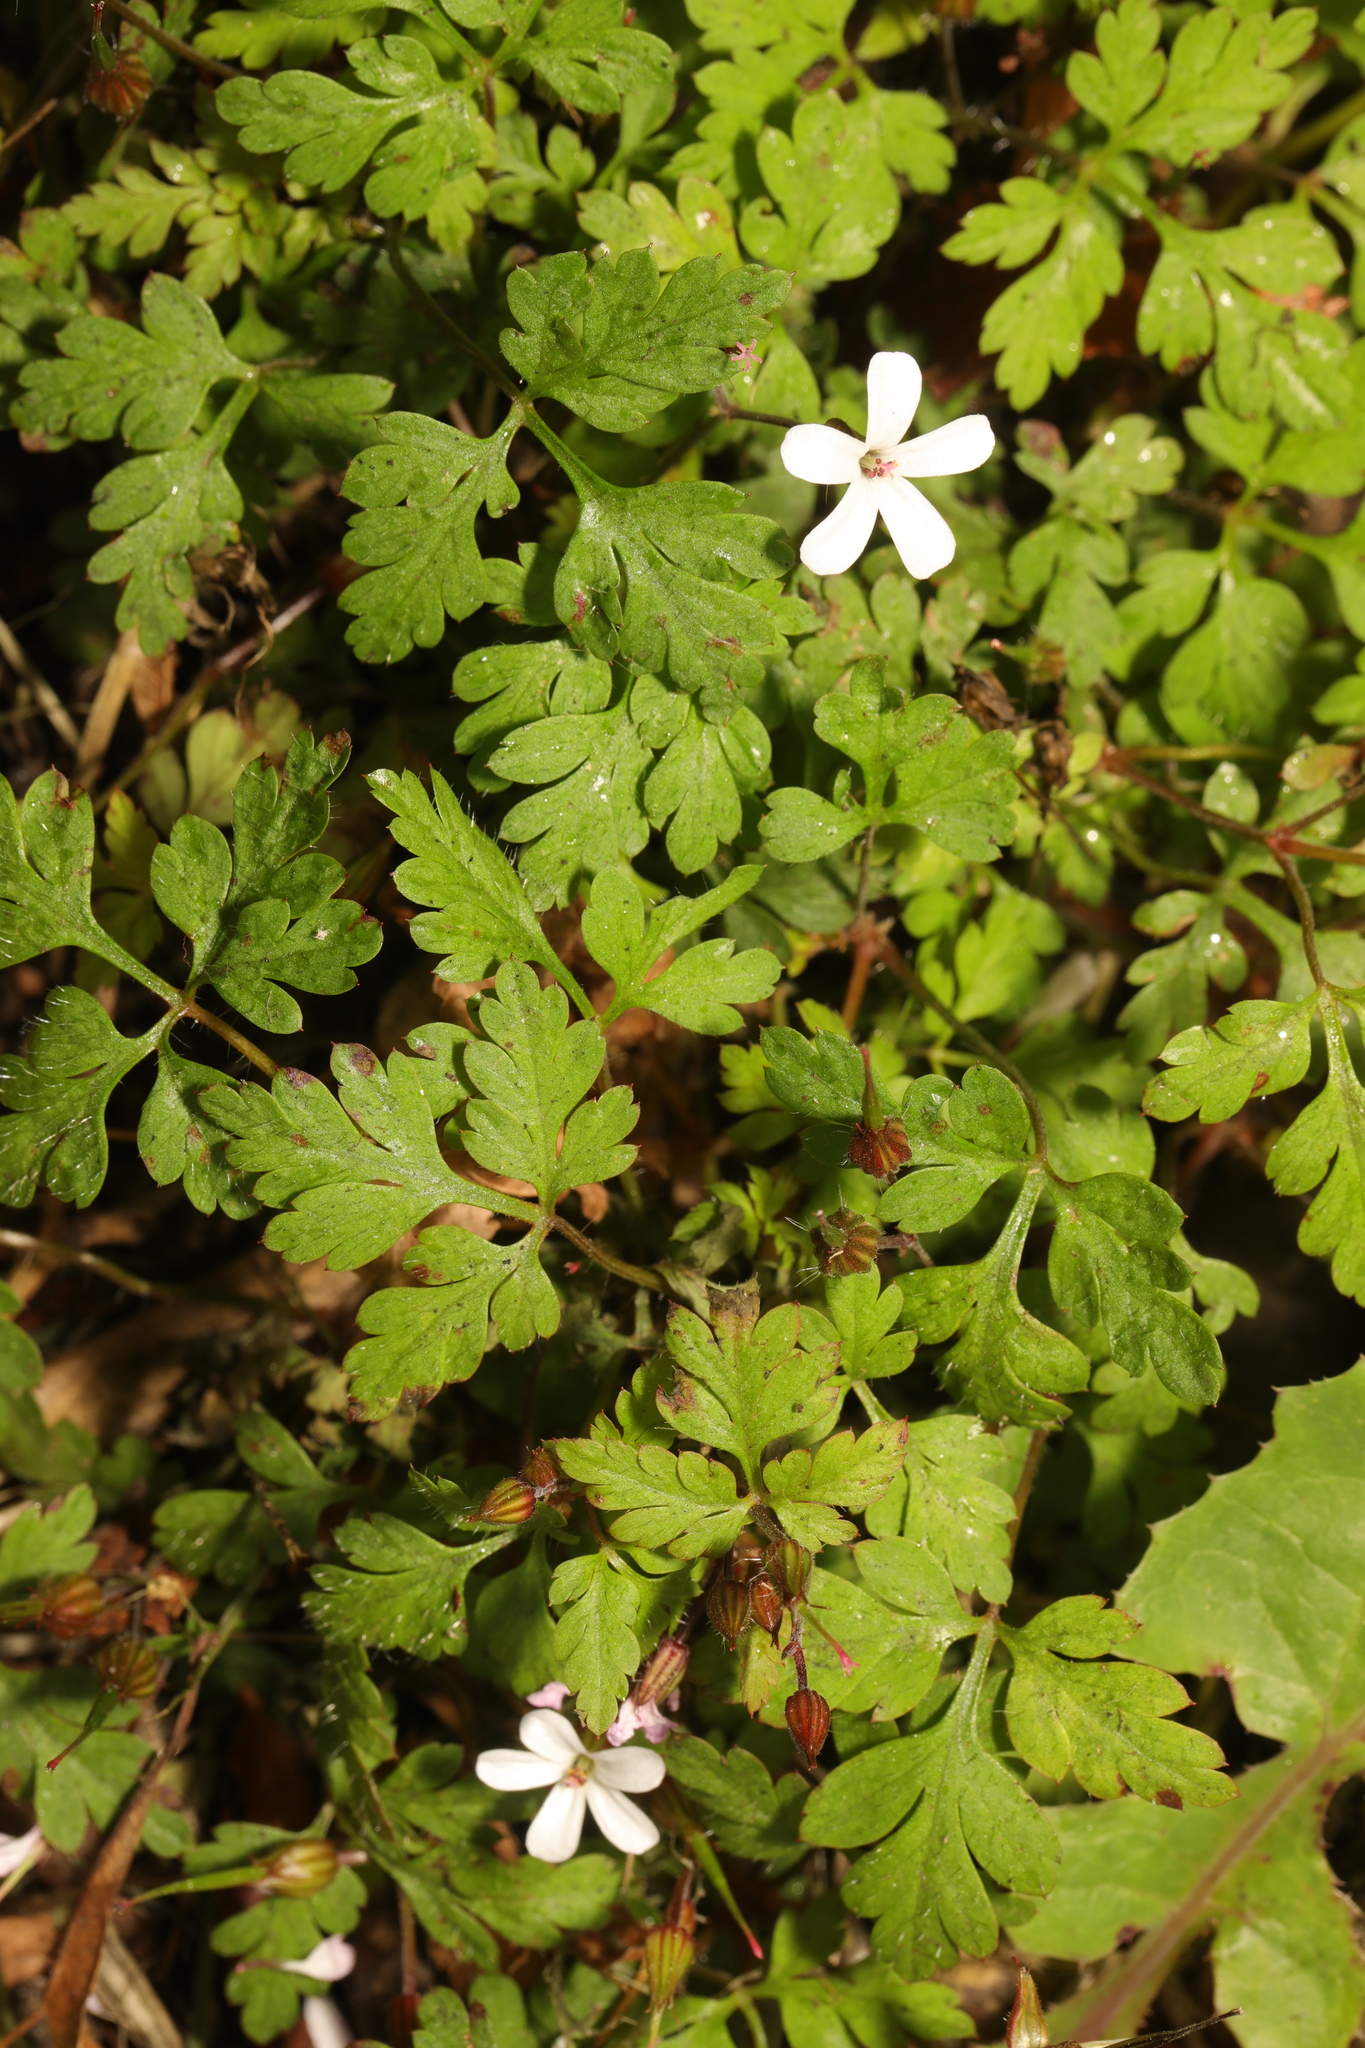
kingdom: Plantae
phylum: Tracheophyta
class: Magnoliopsida
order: Geraniales
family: Geraniaceae
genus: Geranium
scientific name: Geranium robertianum
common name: Herb-robert
